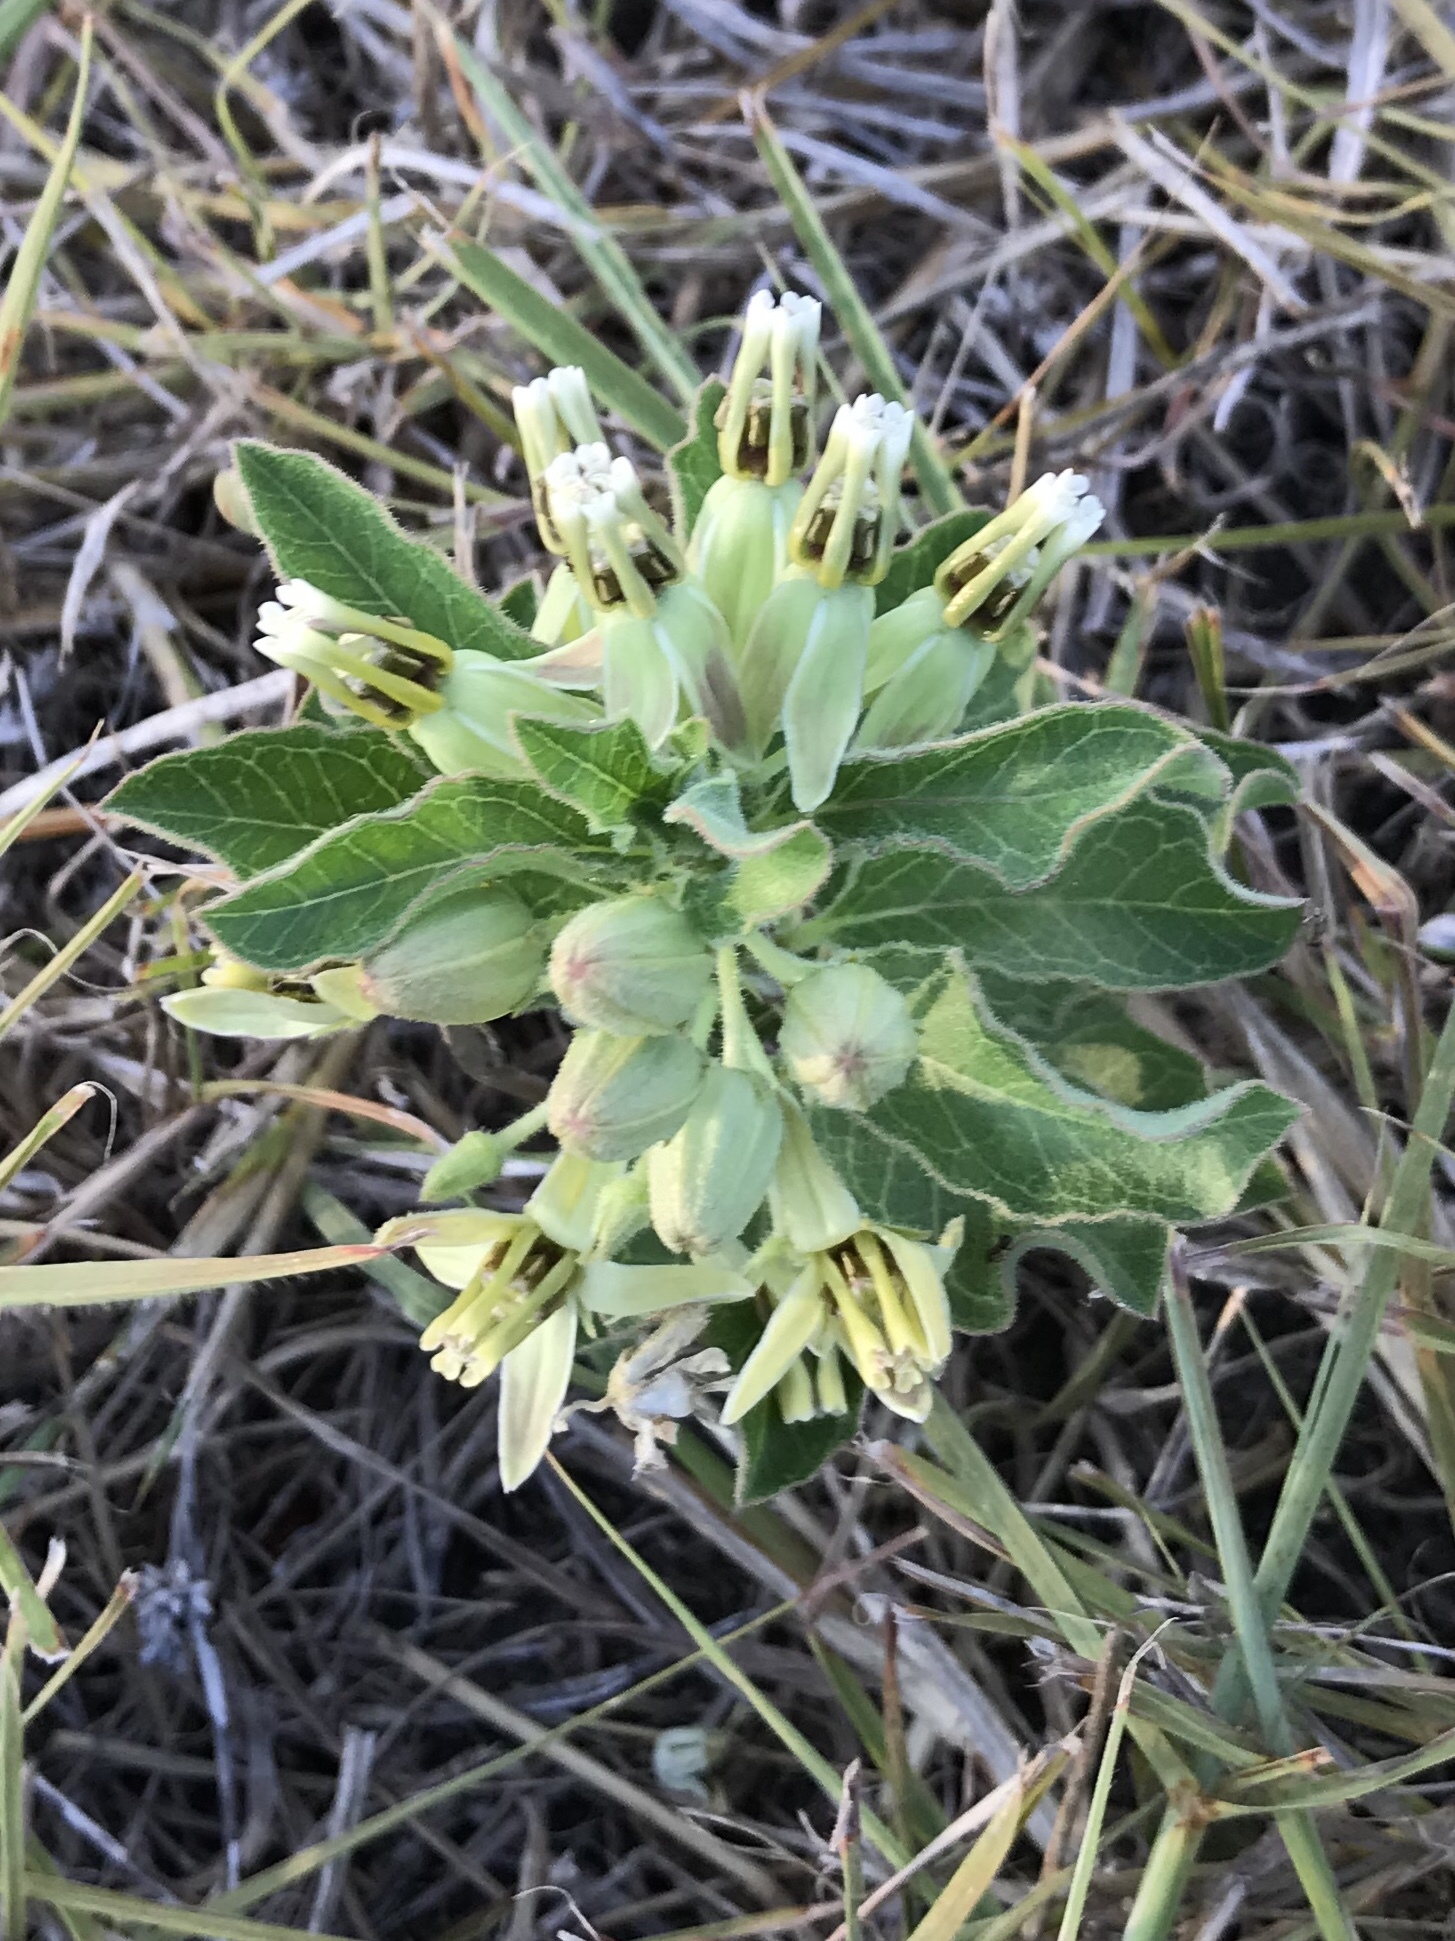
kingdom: Plantae
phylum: Tracheophyta
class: Magnoliopsida
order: Gentianales
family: Apocynaceae
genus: Asclepias
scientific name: Asclepias oenotheroides
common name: Zizotes milkweed
